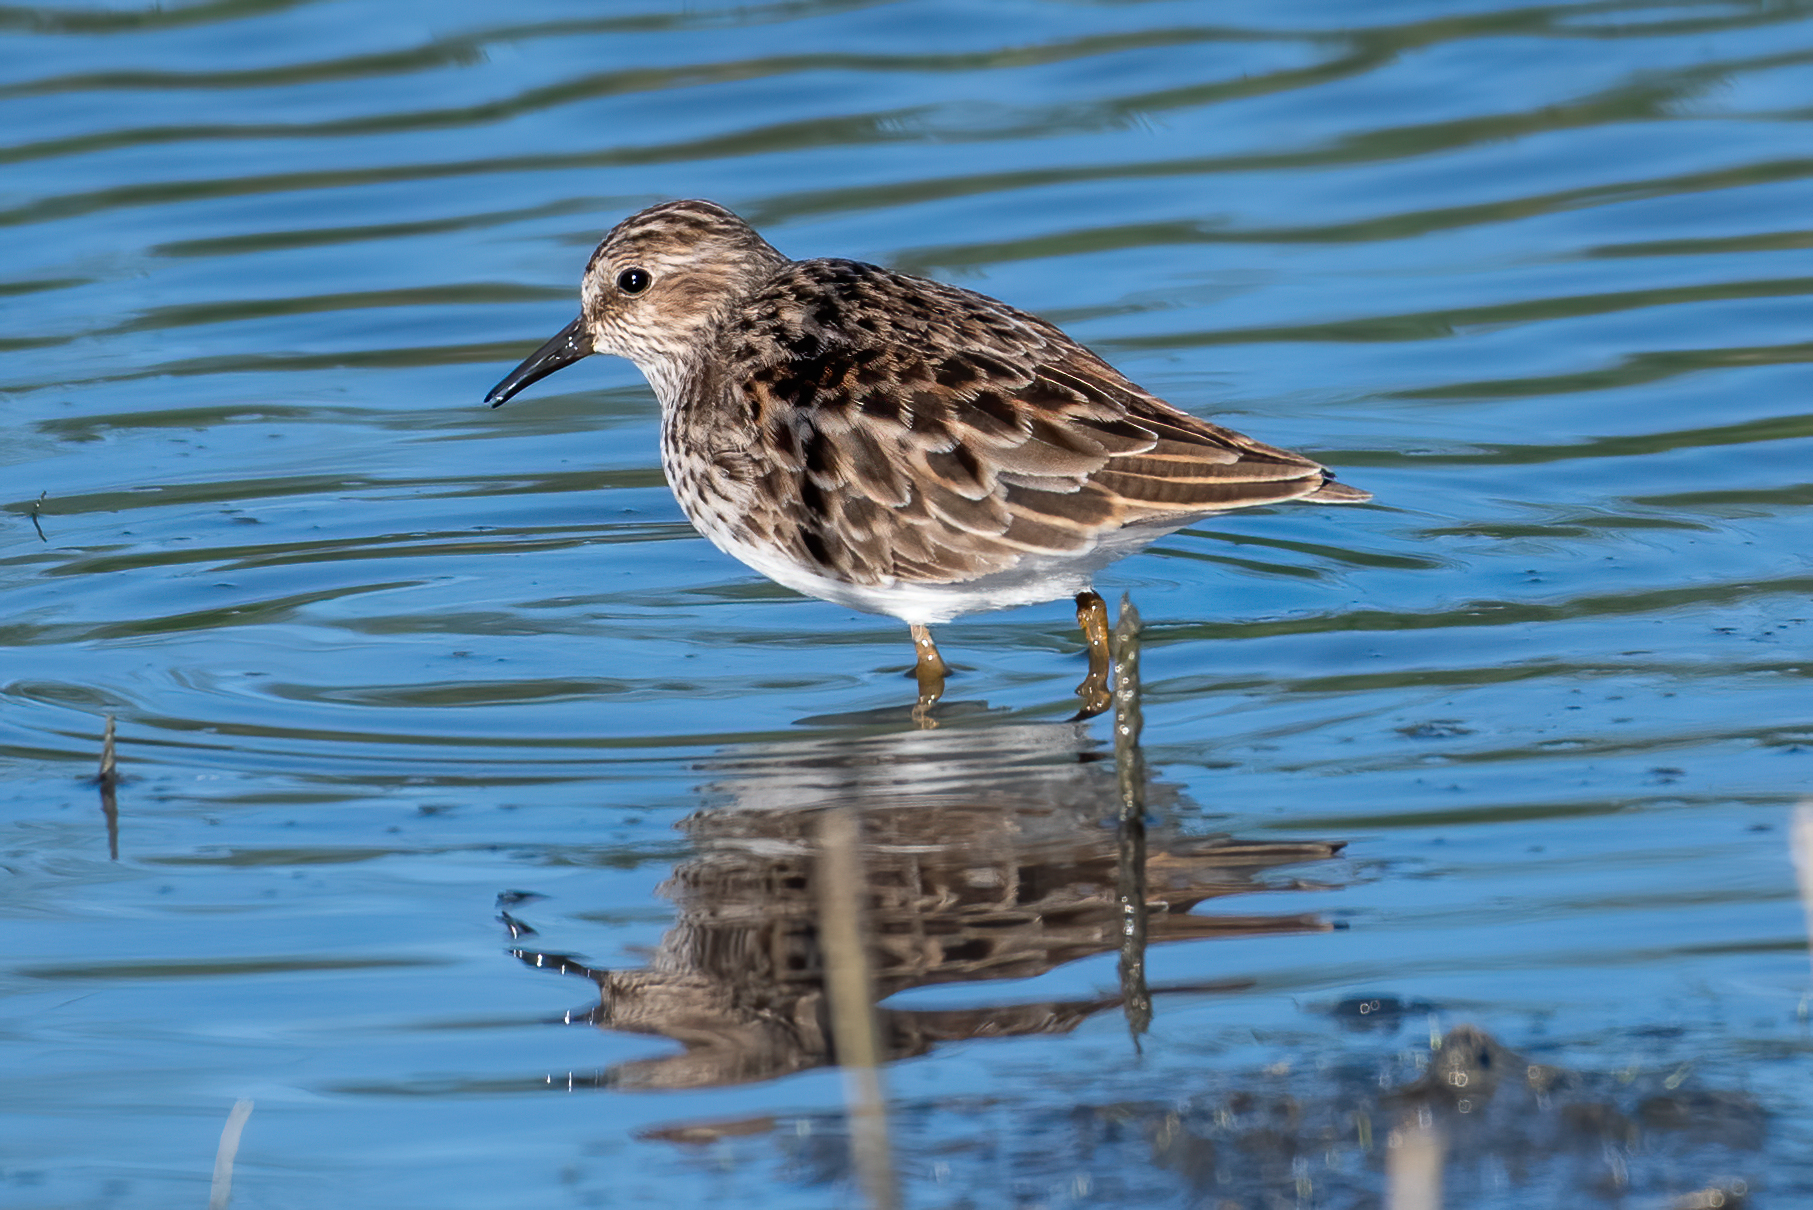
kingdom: Animalia
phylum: Chordata
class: Aves
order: Charadriiformes
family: Scolopacidae
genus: Calidris
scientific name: Calidris minutilla
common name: Least sandpiper
